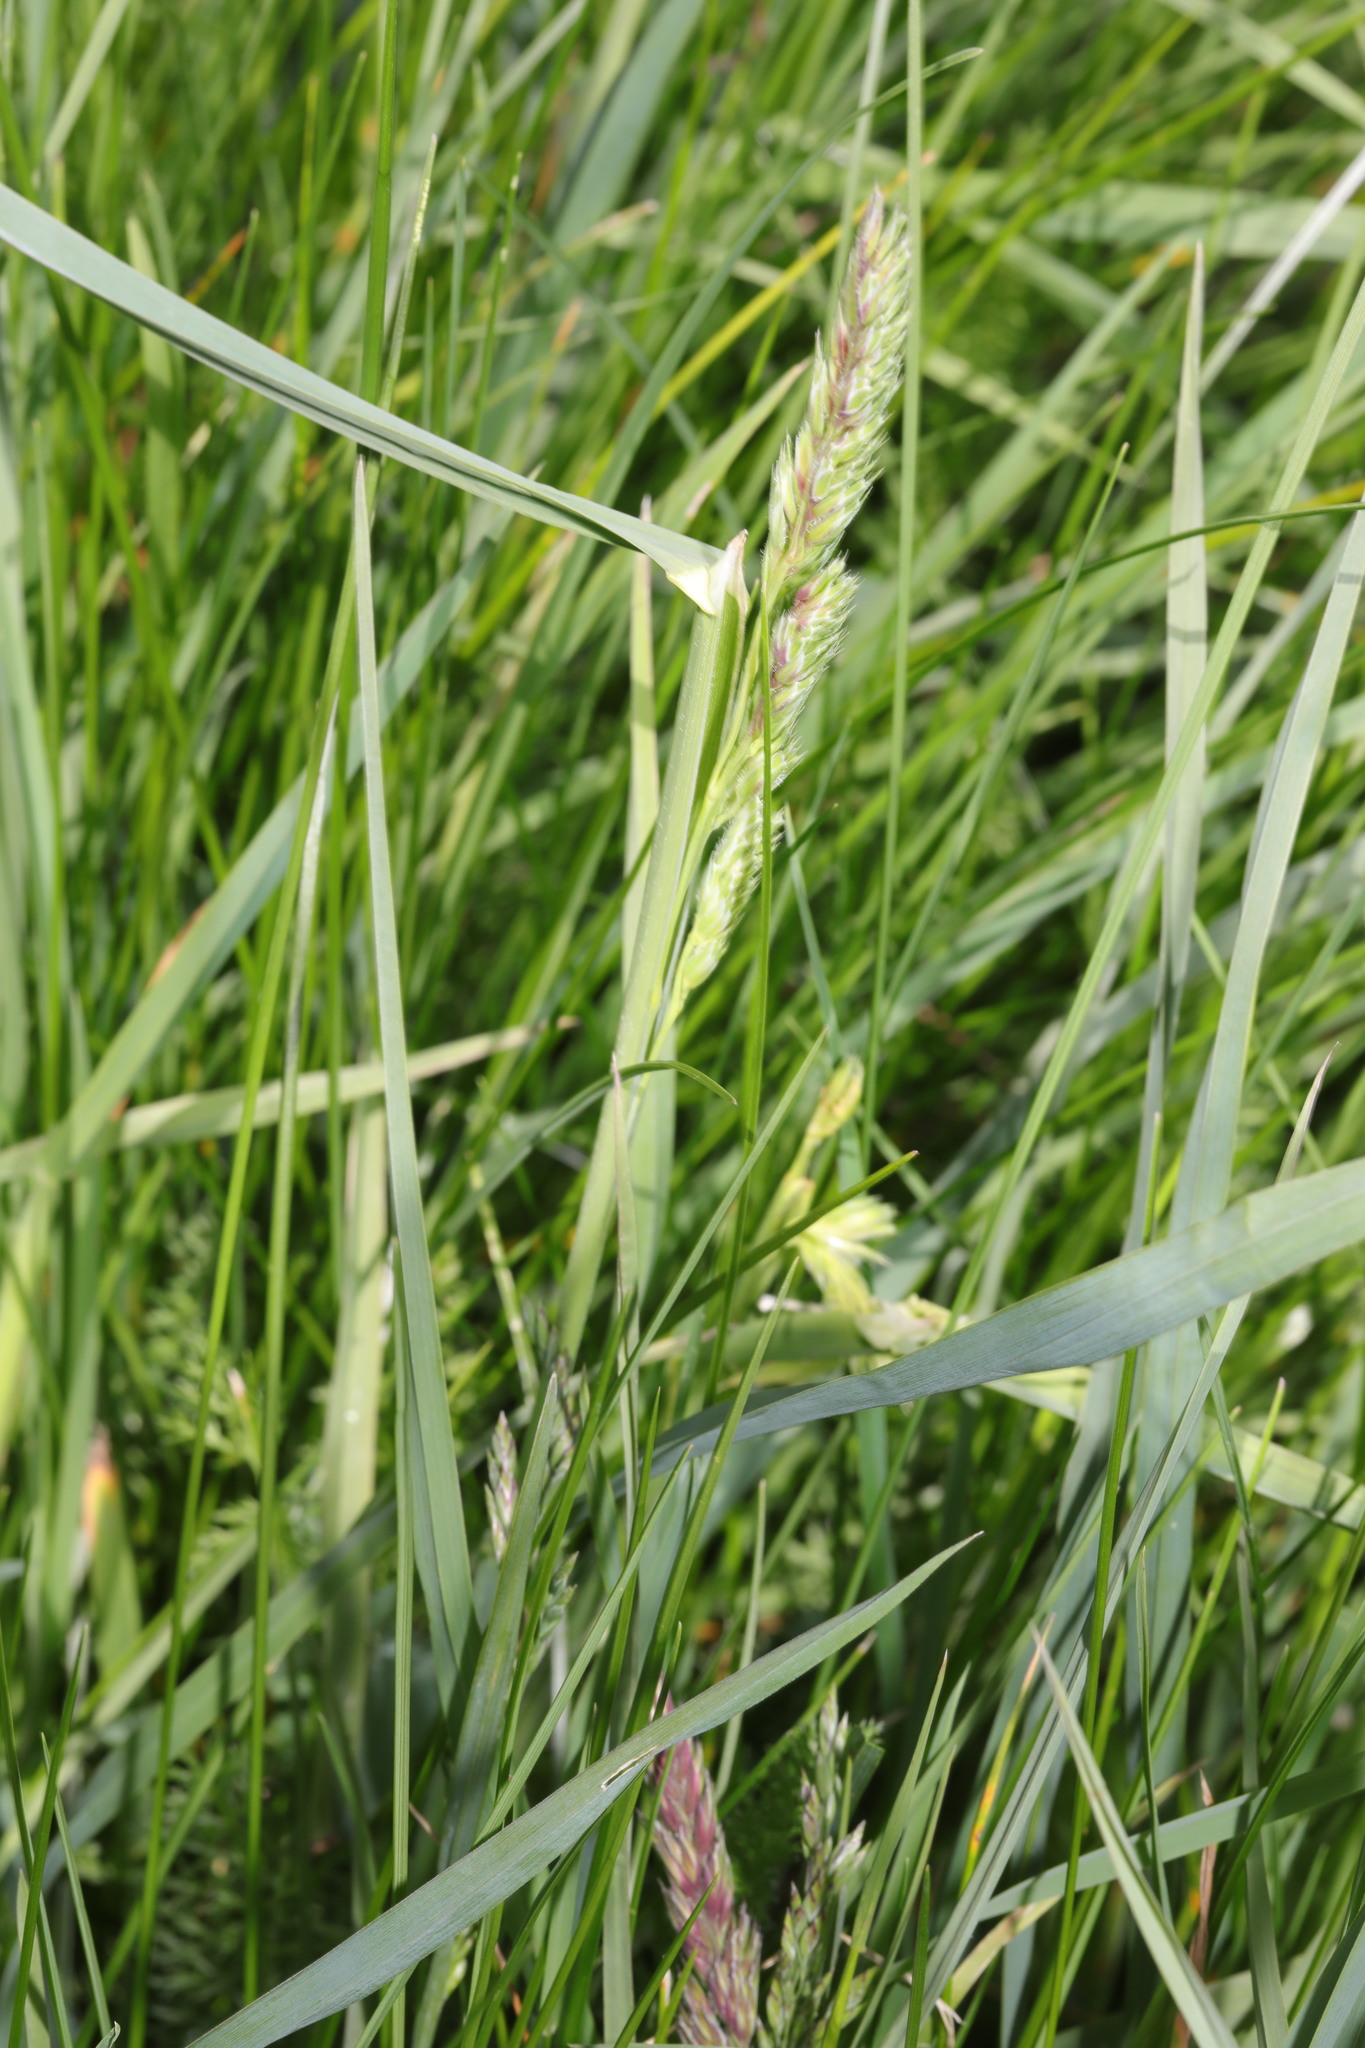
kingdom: Plantae
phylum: Tracheophyta
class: Liliopsida
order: Poales
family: Poaceae
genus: Dactylis
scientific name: Dactylis glomerata
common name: Orchardgrass
